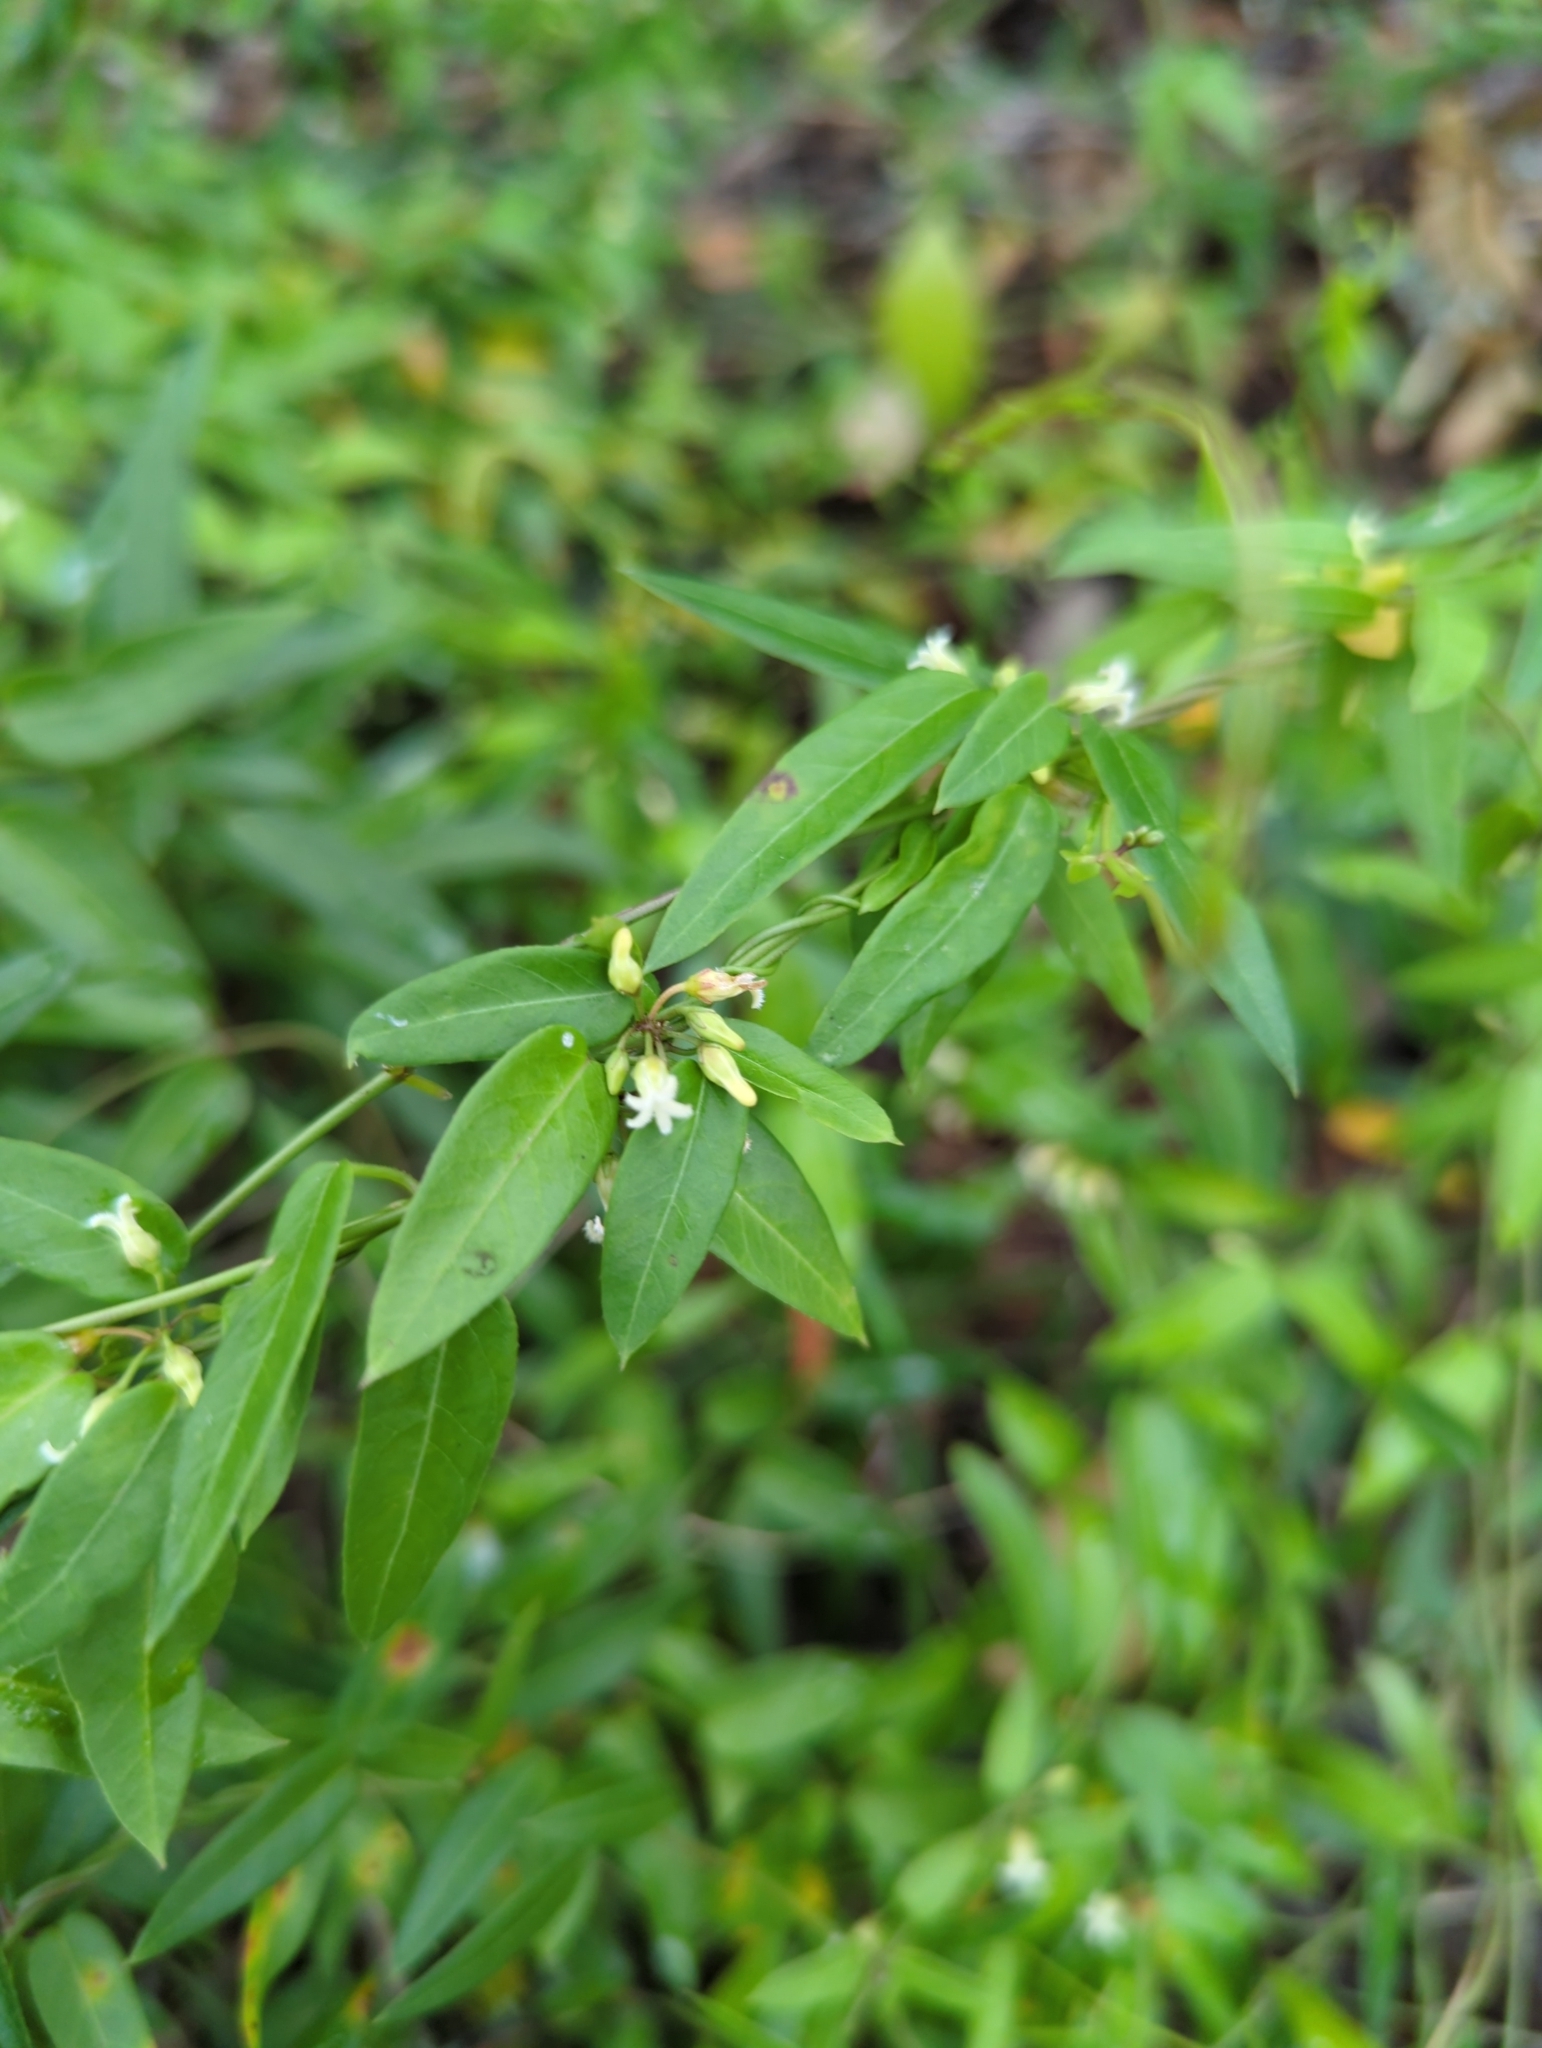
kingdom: Plantae
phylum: Tracheophyta
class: Magnoliopsida
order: Gentianales
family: Apocynaceae
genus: Metastelma
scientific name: Metastelma barbigerum
